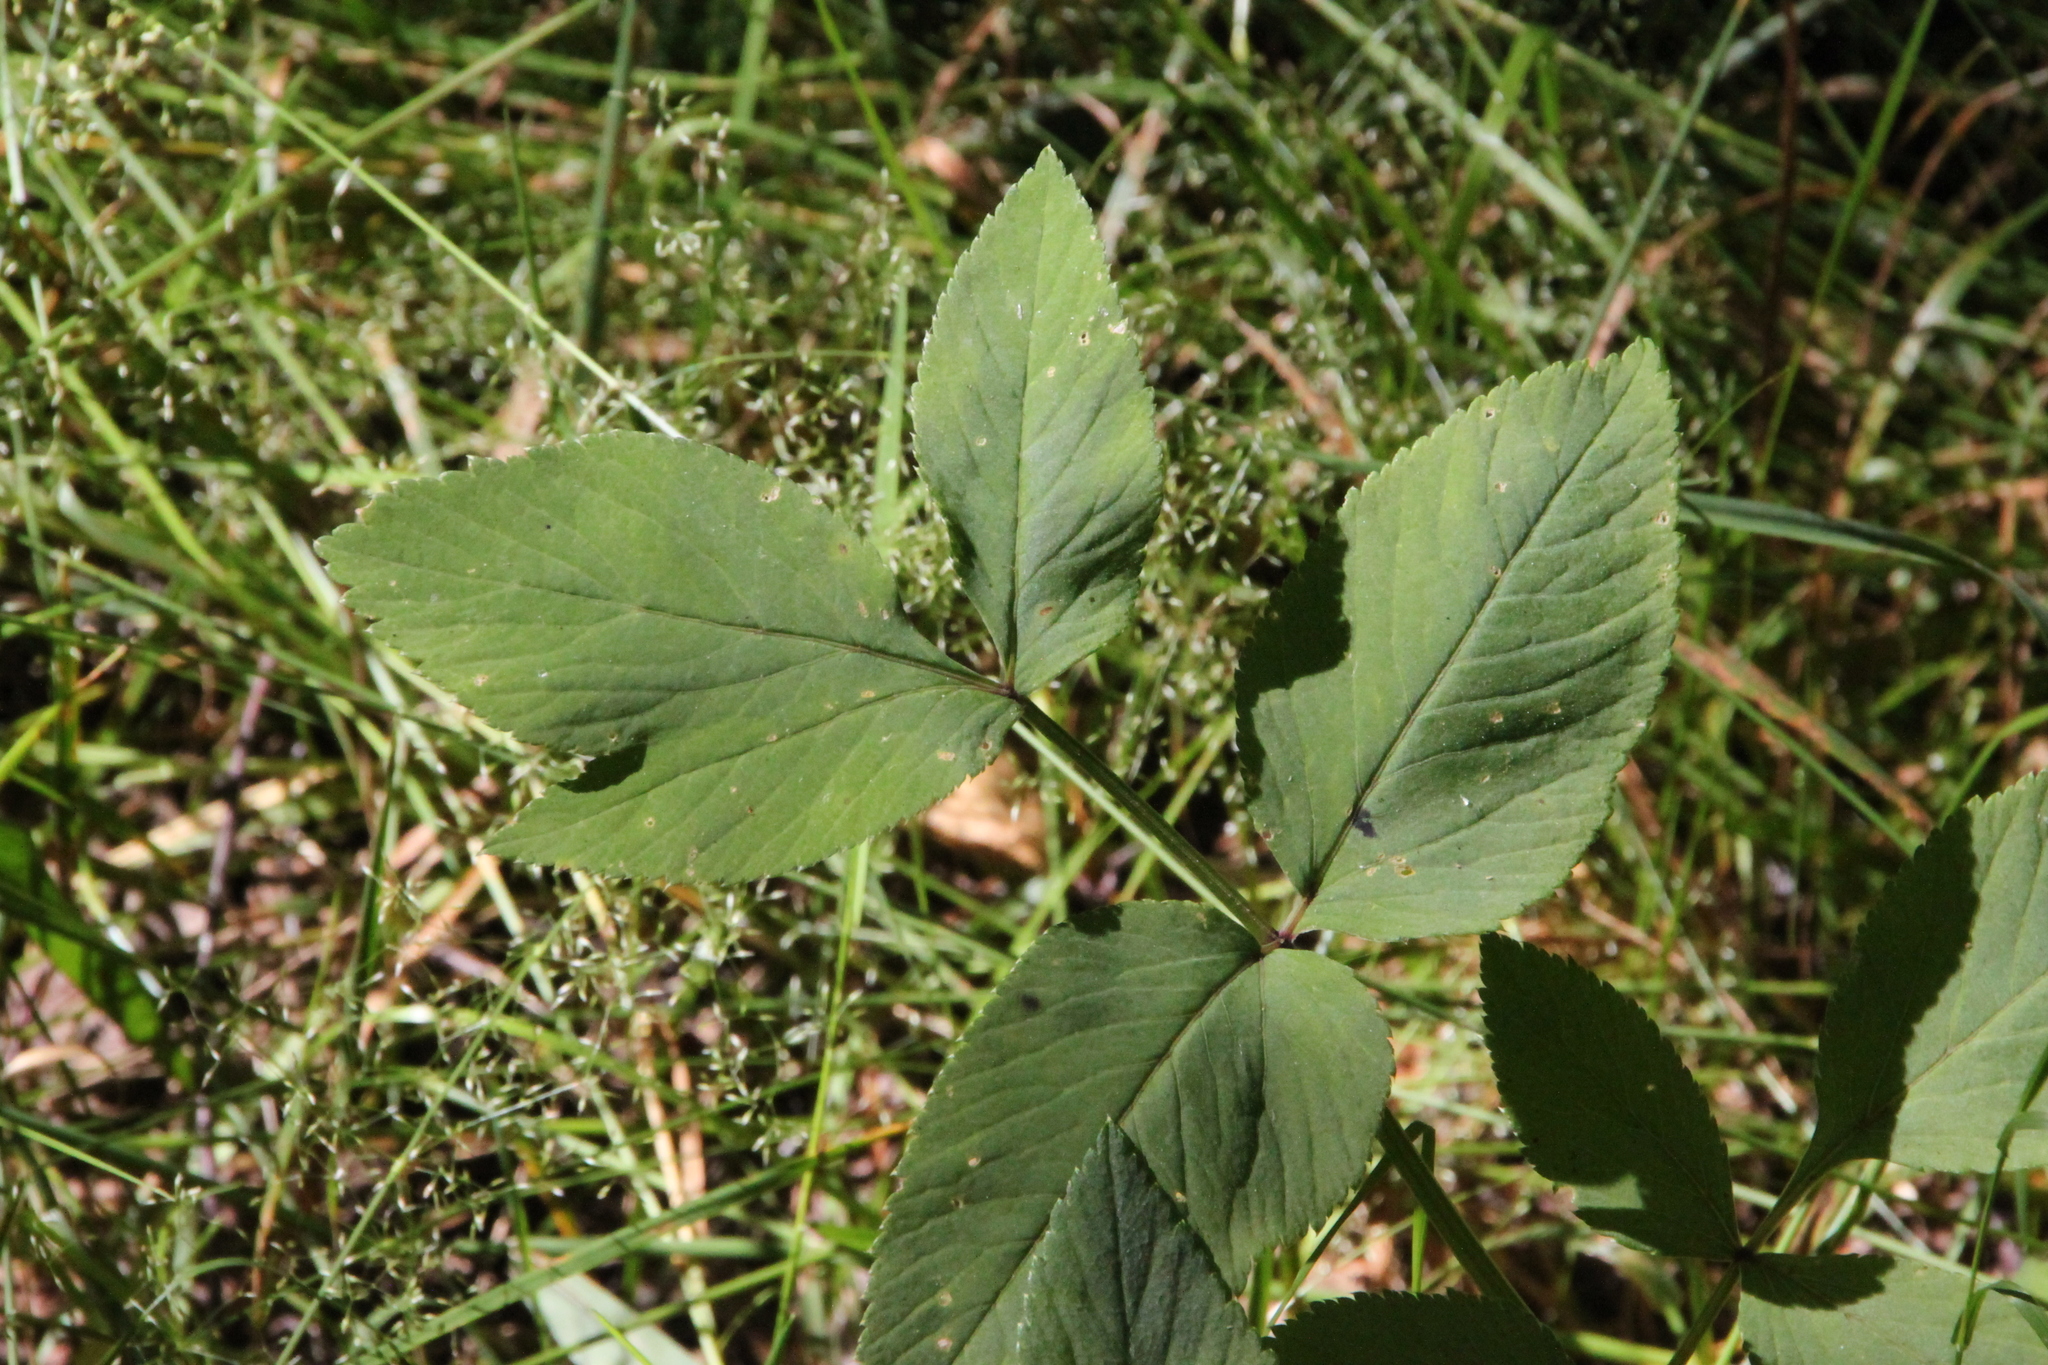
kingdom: Plantae
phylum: Tracheophyta
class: Magnoliopsida
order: Apiales
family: Apiaceae
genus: Angelica
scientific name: Angelica sylvestris
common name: Wild angelica
